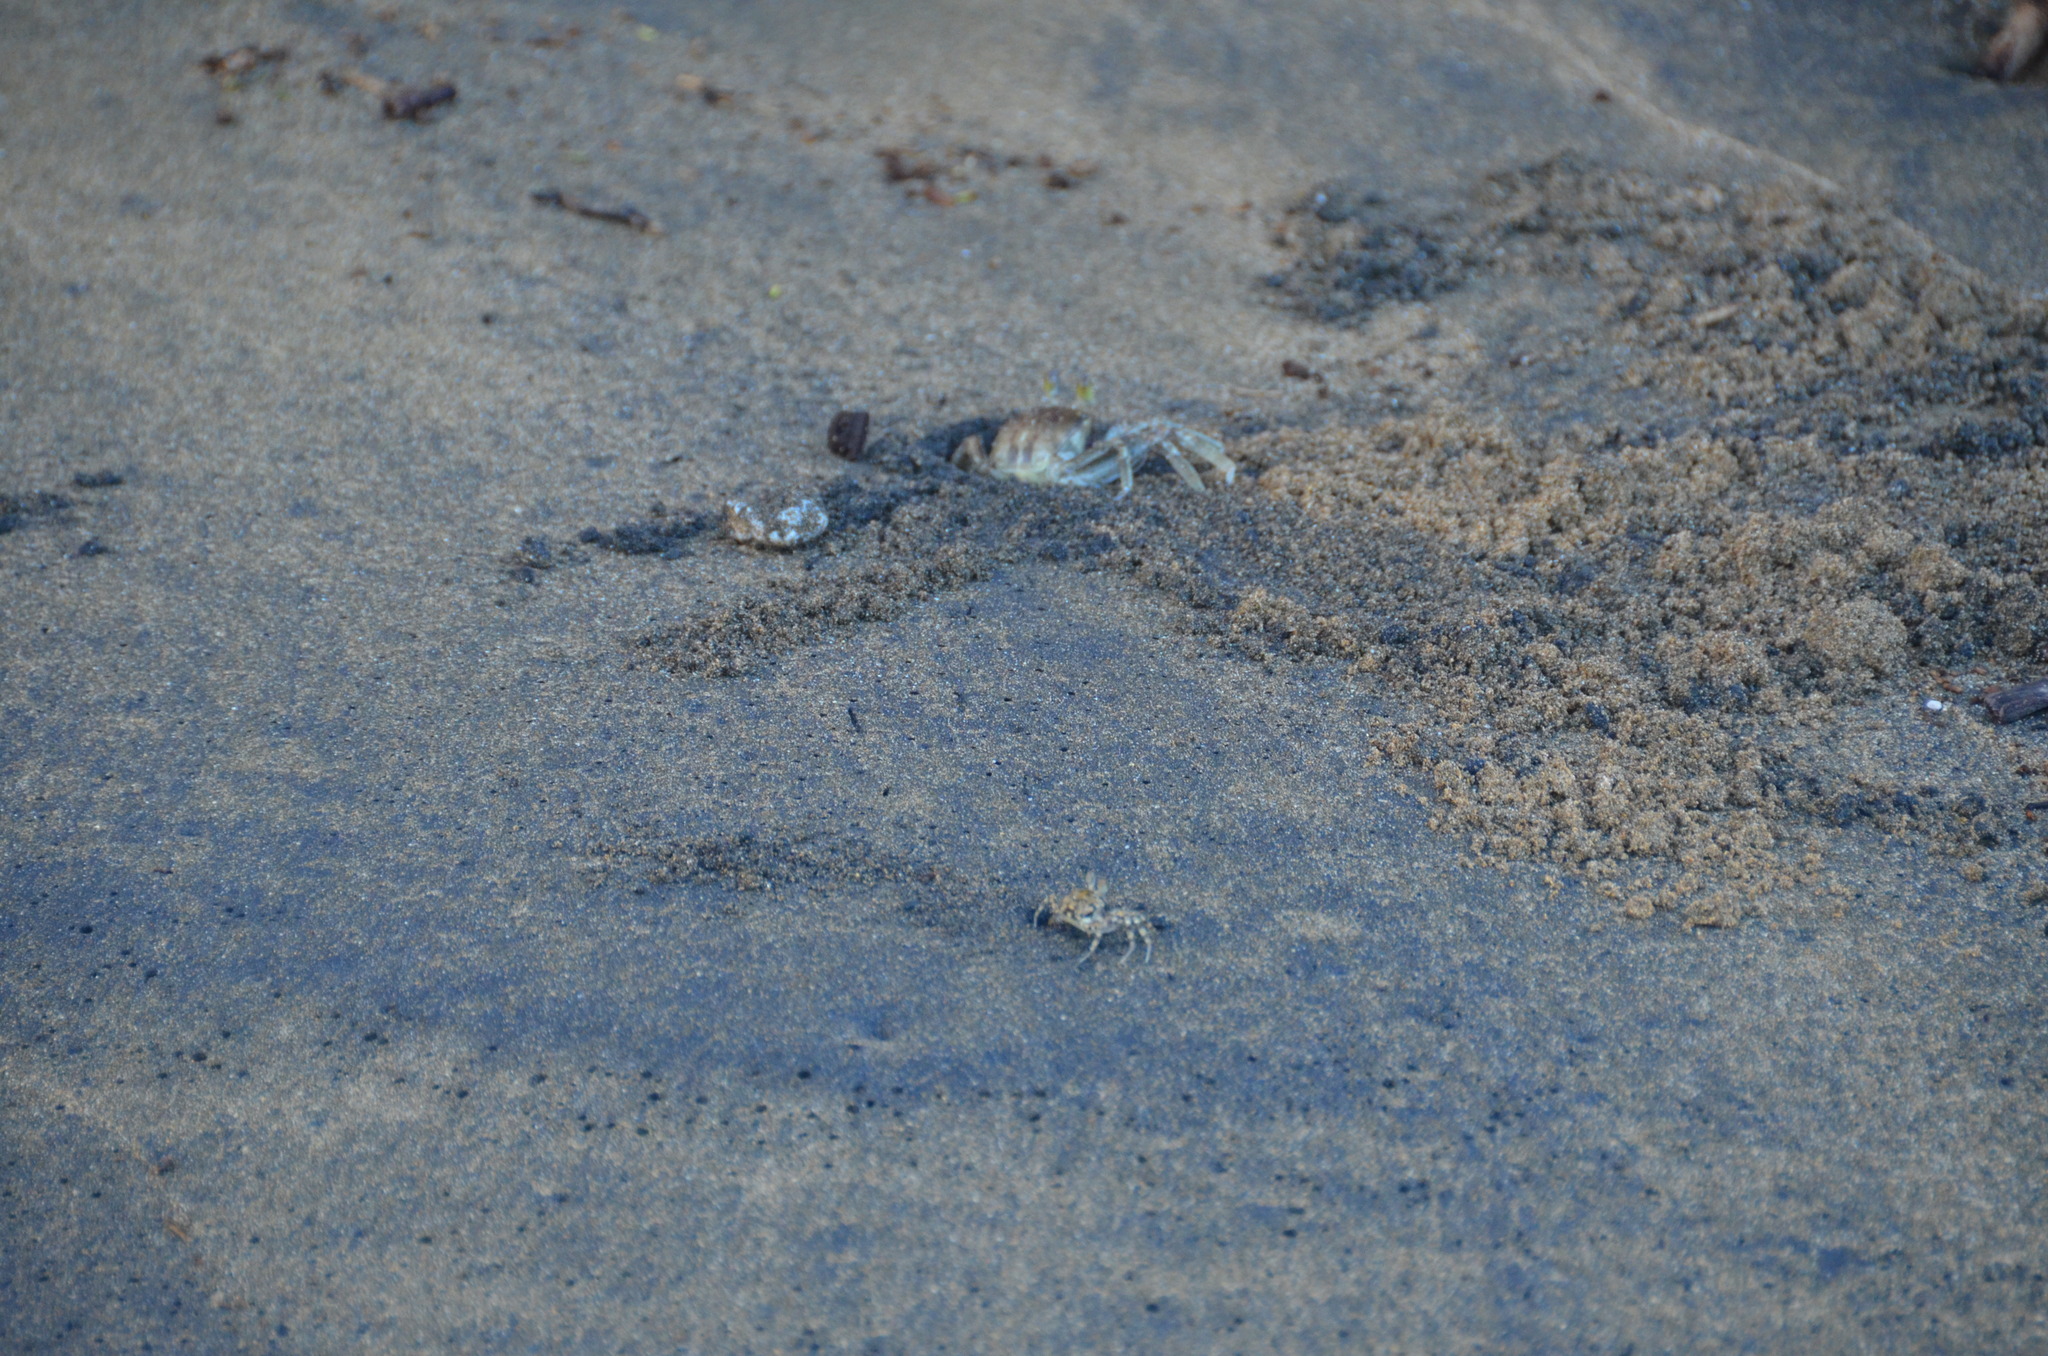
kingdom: Animalia
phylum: Arthropoda
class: Malacostraca
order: Decapoda
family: Ocypodidae
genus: Ocypode
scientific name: Ocypode pallidula
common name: Pallid ghost crab
